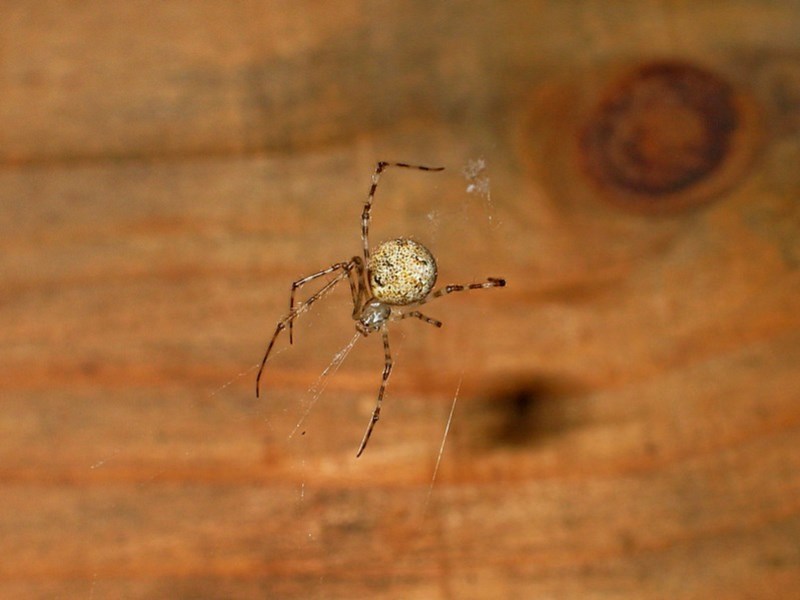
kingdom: Animalia
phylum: Arthropoda
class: Arachnida
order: Araneae
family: Theridiidae
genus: Cryptachaea
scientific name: Cryptachaea gigantipes
